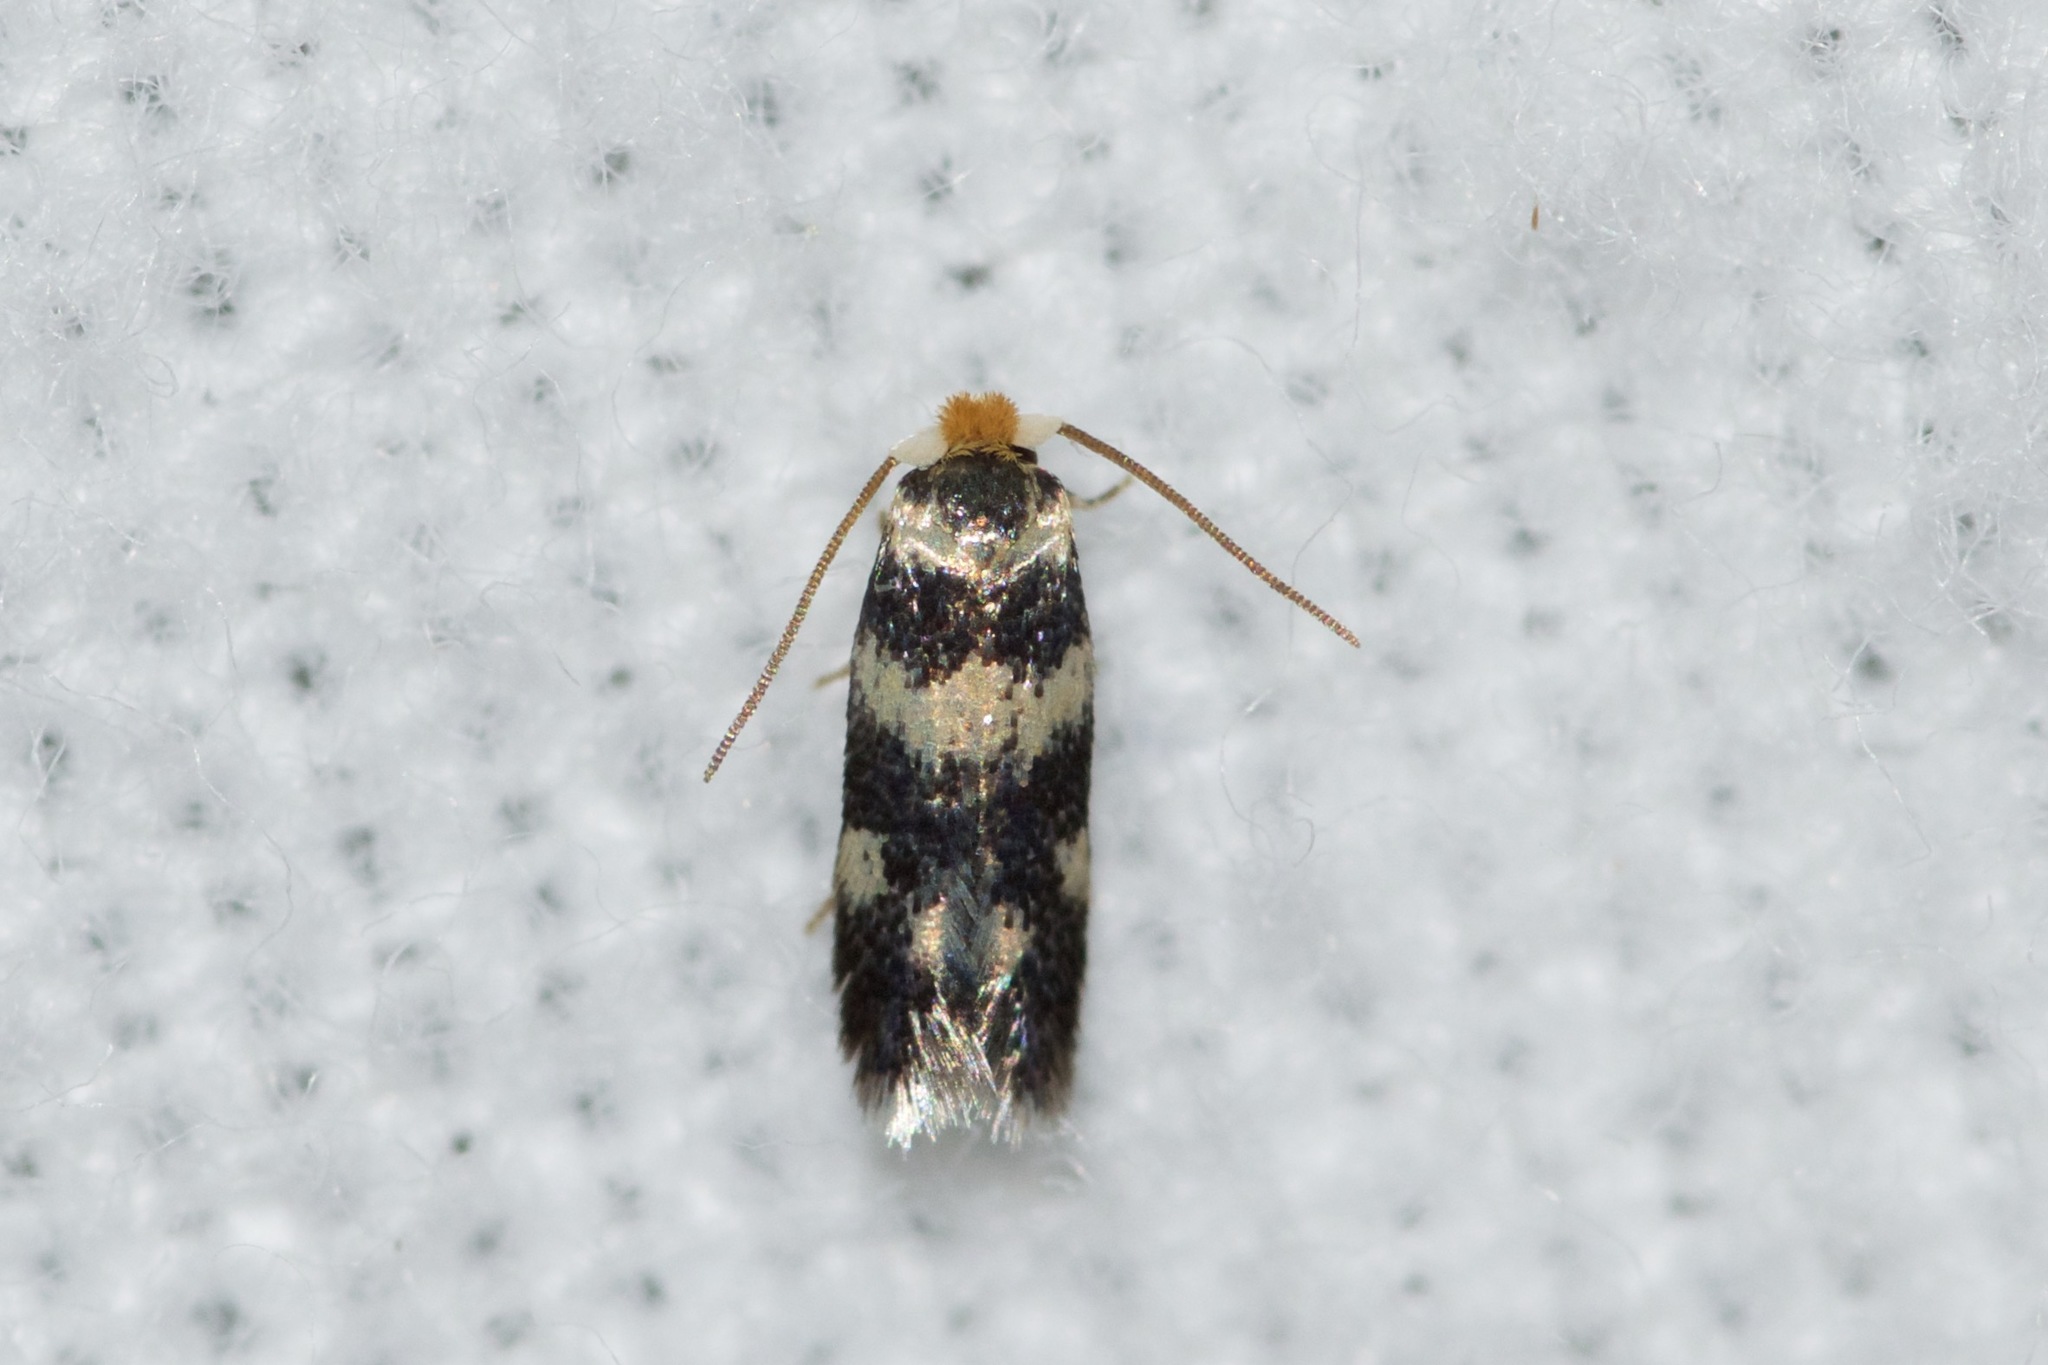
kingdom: Animalia
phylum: Arthropoda
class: Insecta
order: Lepidoptera
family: Nepticulidae
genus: Etainia
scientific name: Etainia sericopeza
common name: Leafminer
